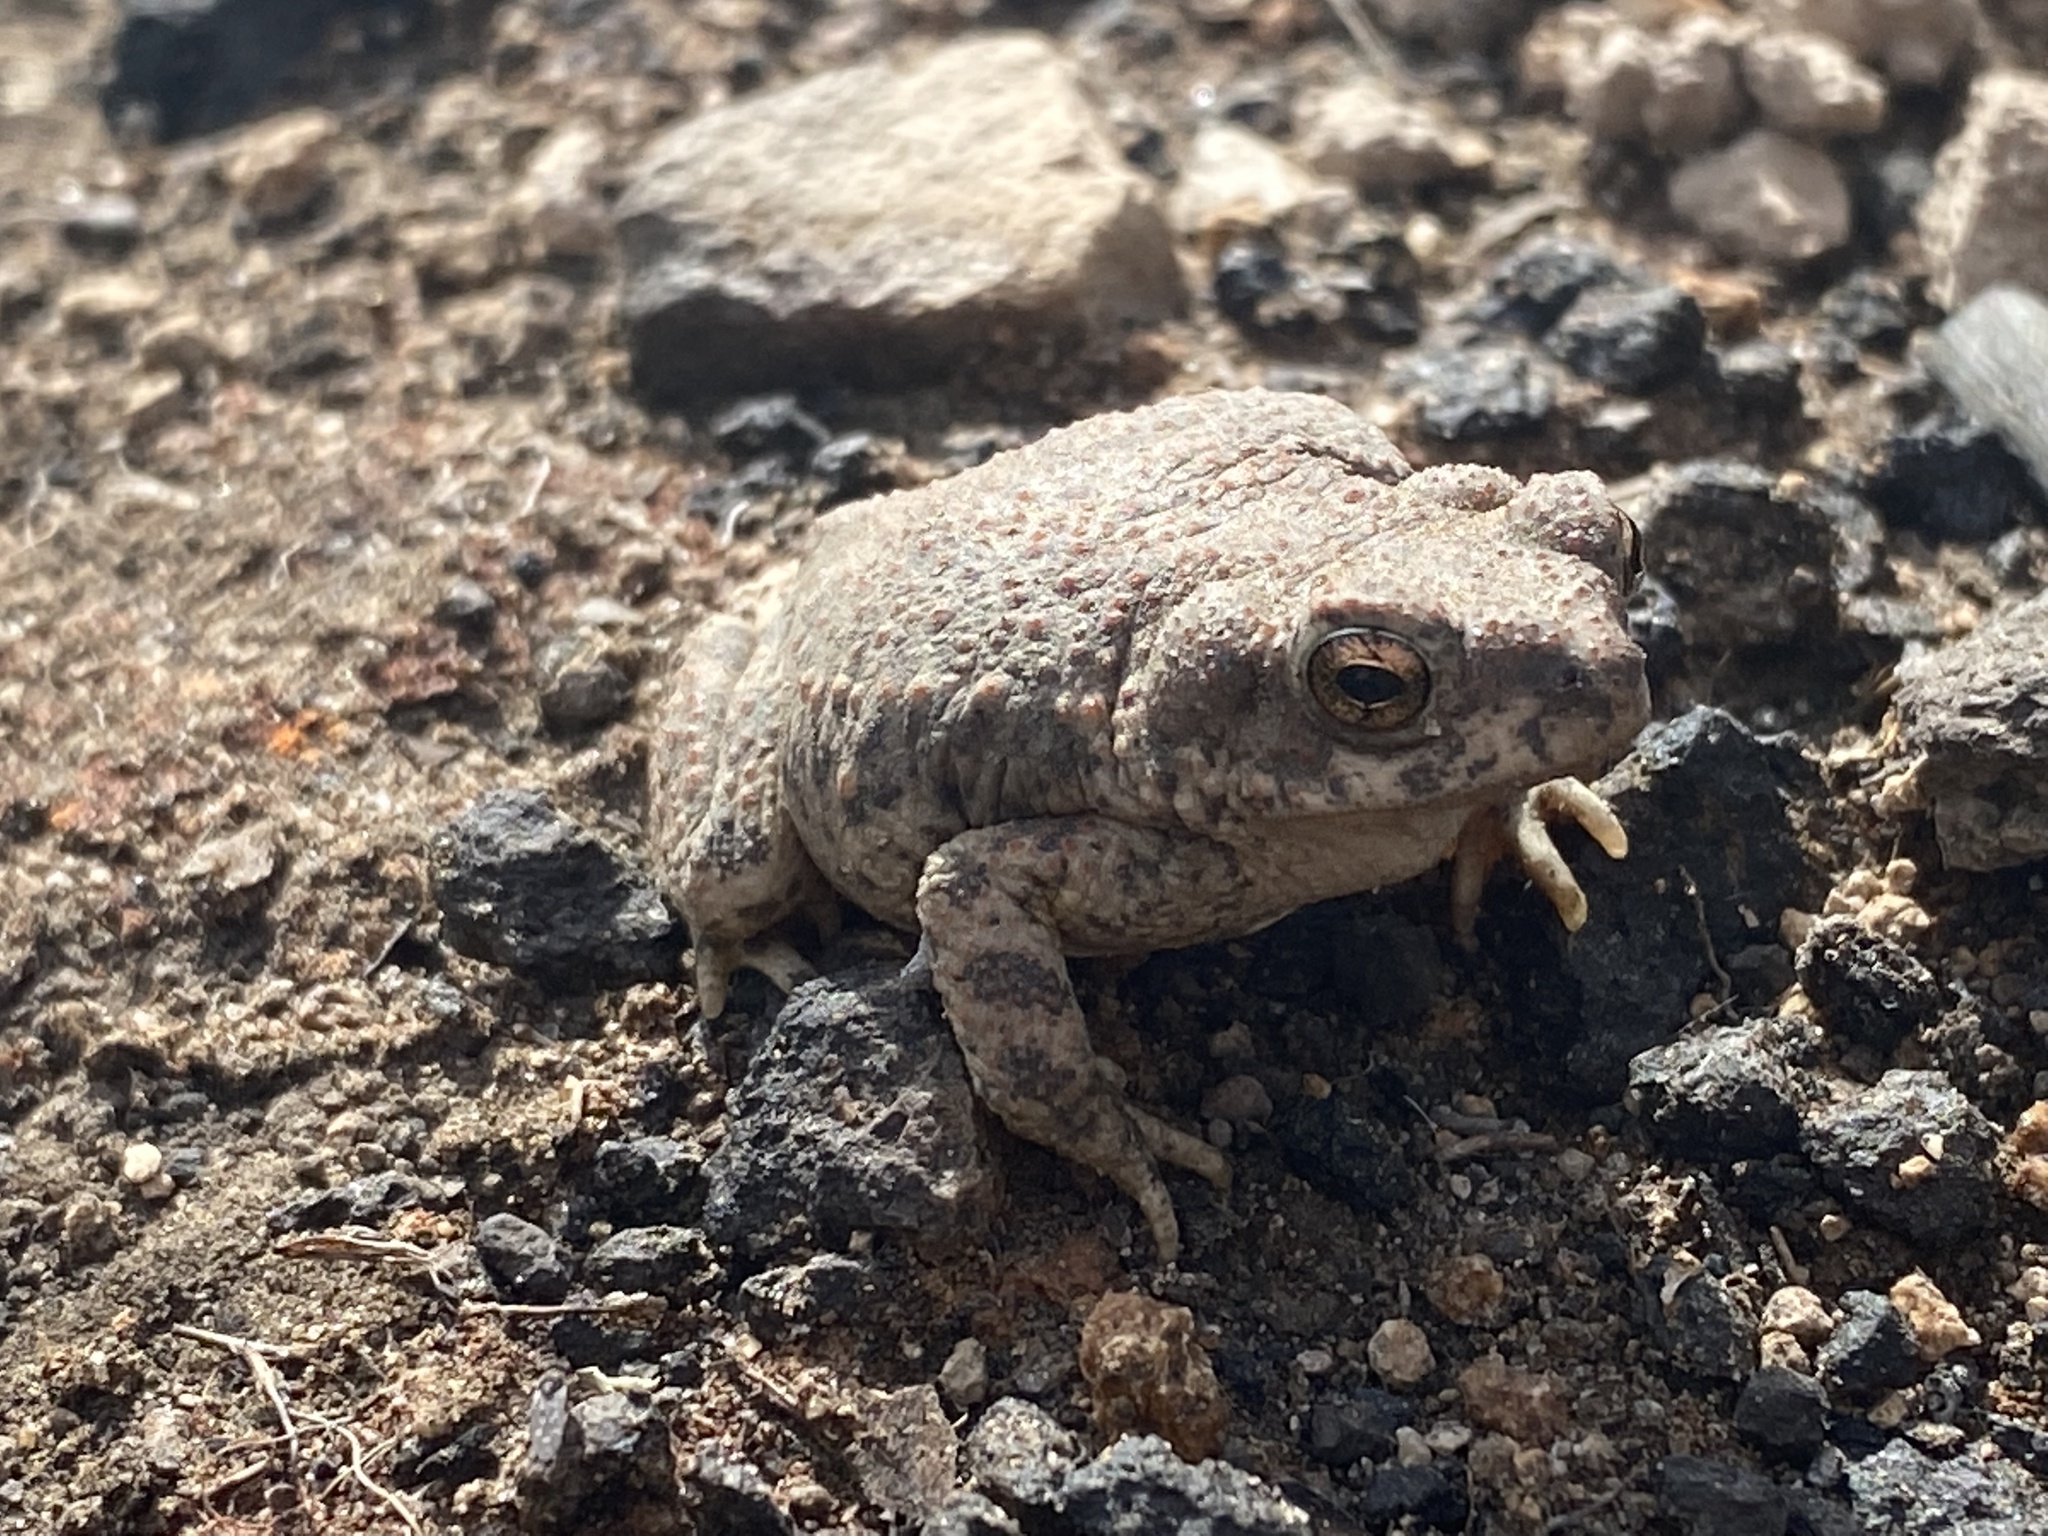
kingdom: Animalia
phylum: Chordata
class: Amphibia
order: Anura
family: Bufonidae
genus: Anaxyrus
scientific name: Anaxyrus punctatus
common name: Red-spotted toad
